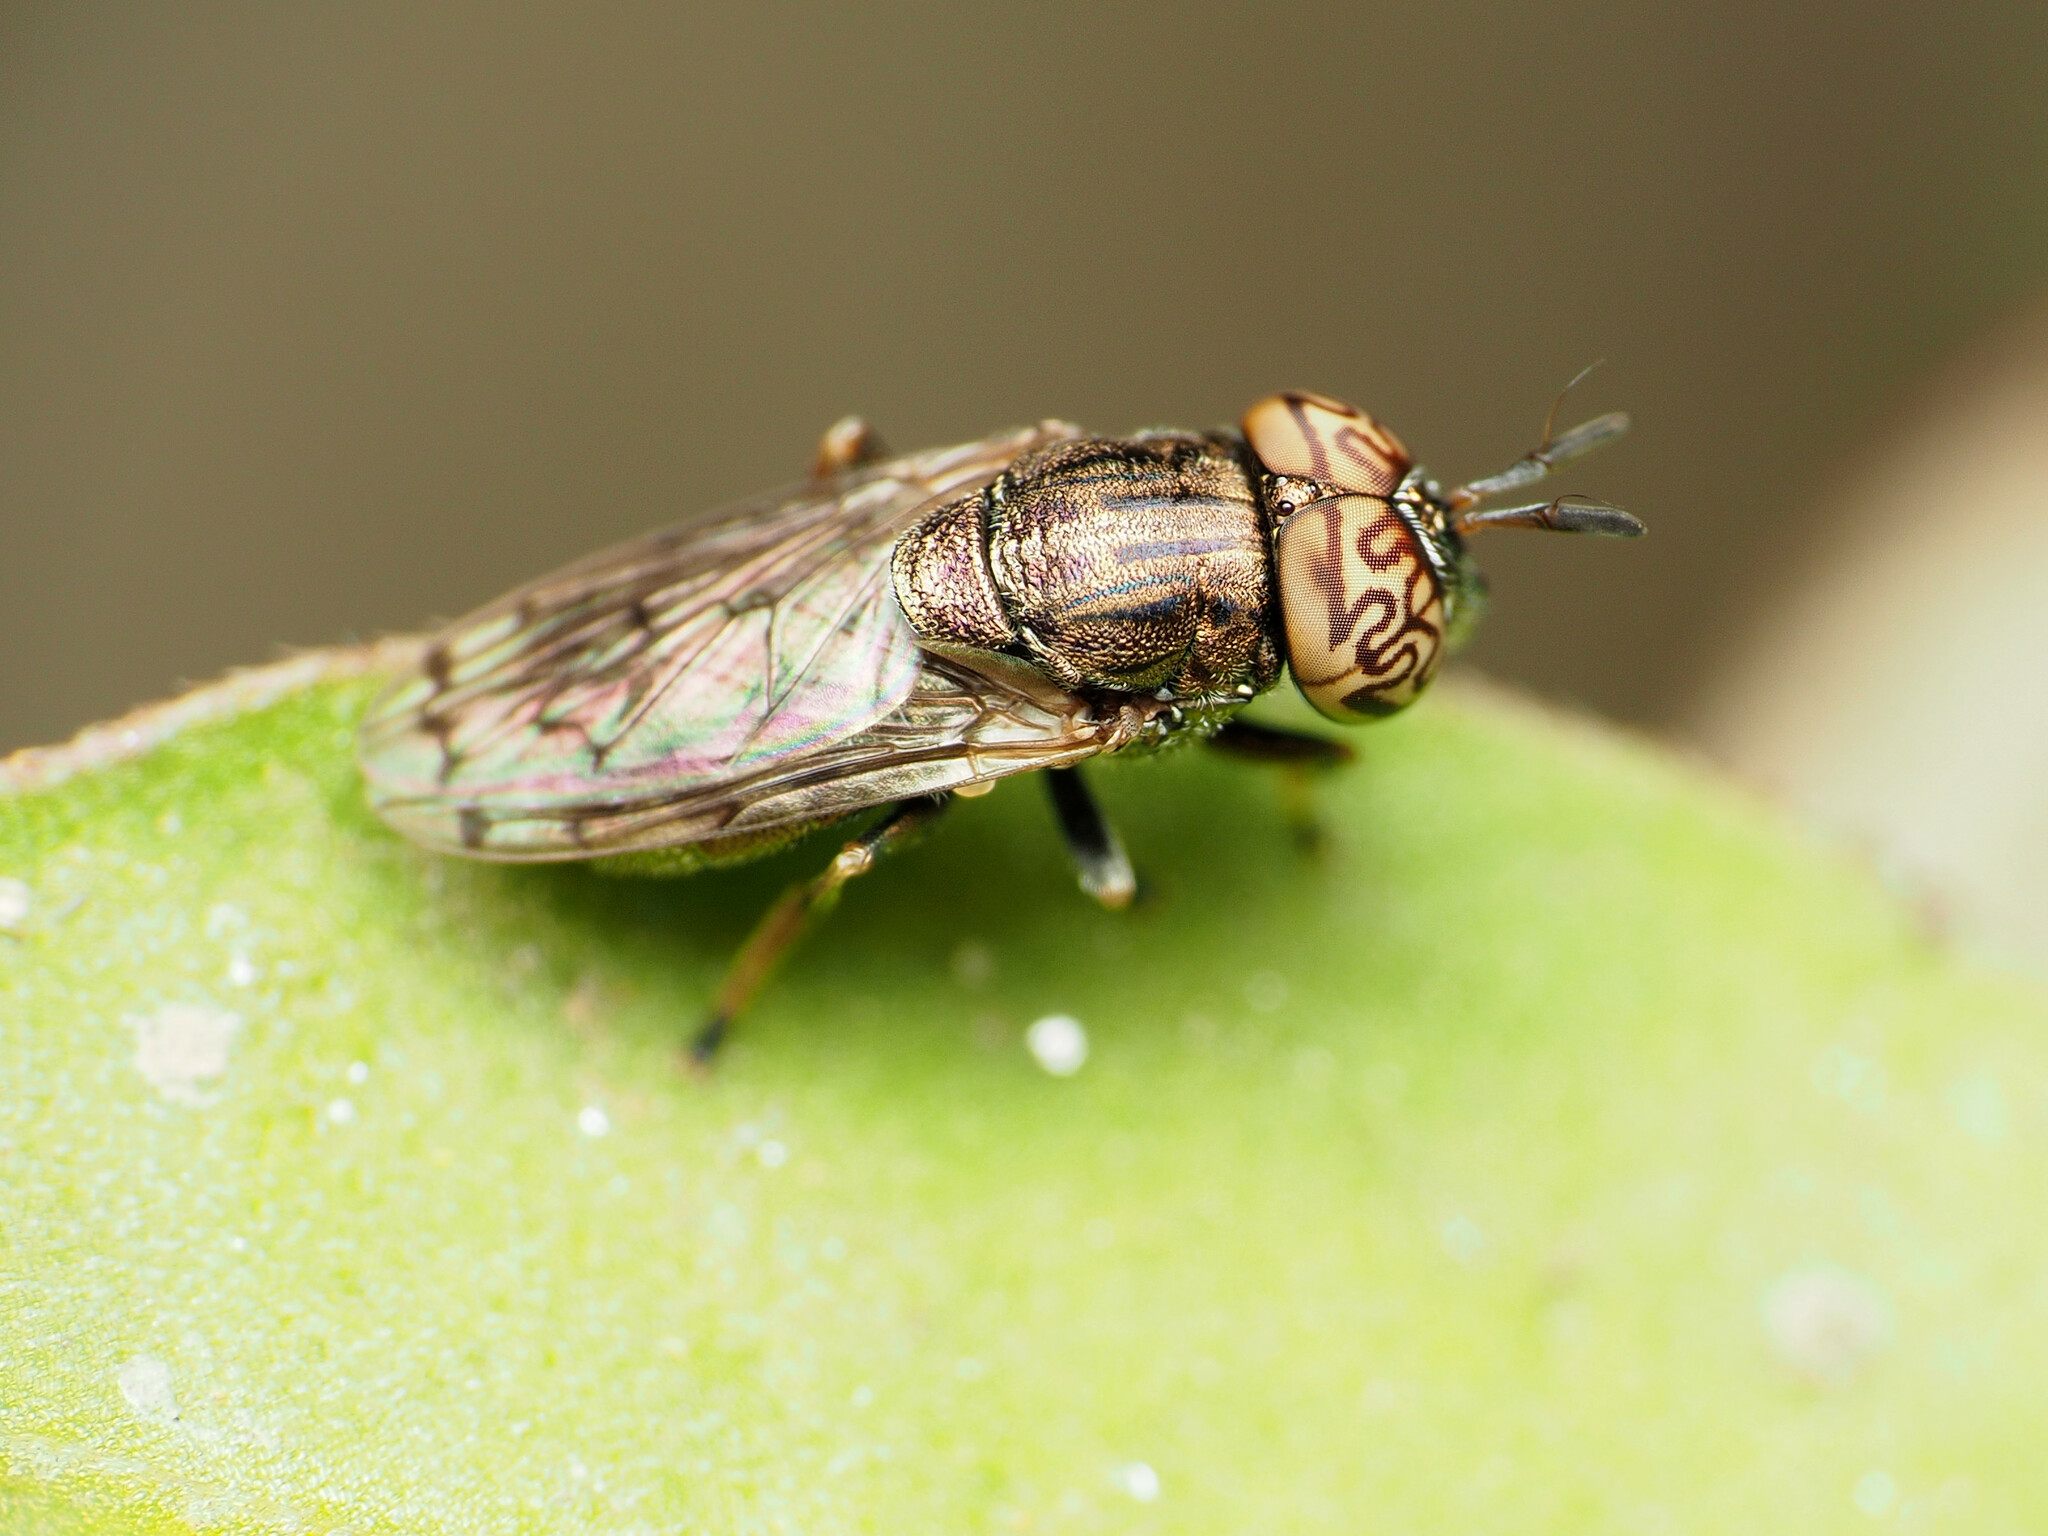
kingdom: Animalia
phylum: Arthropoda
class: Insecta
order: Diptera
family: Syrphidae
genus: Orthonevra
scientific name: Orthonevra nitida
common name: Wavy mucksucker
